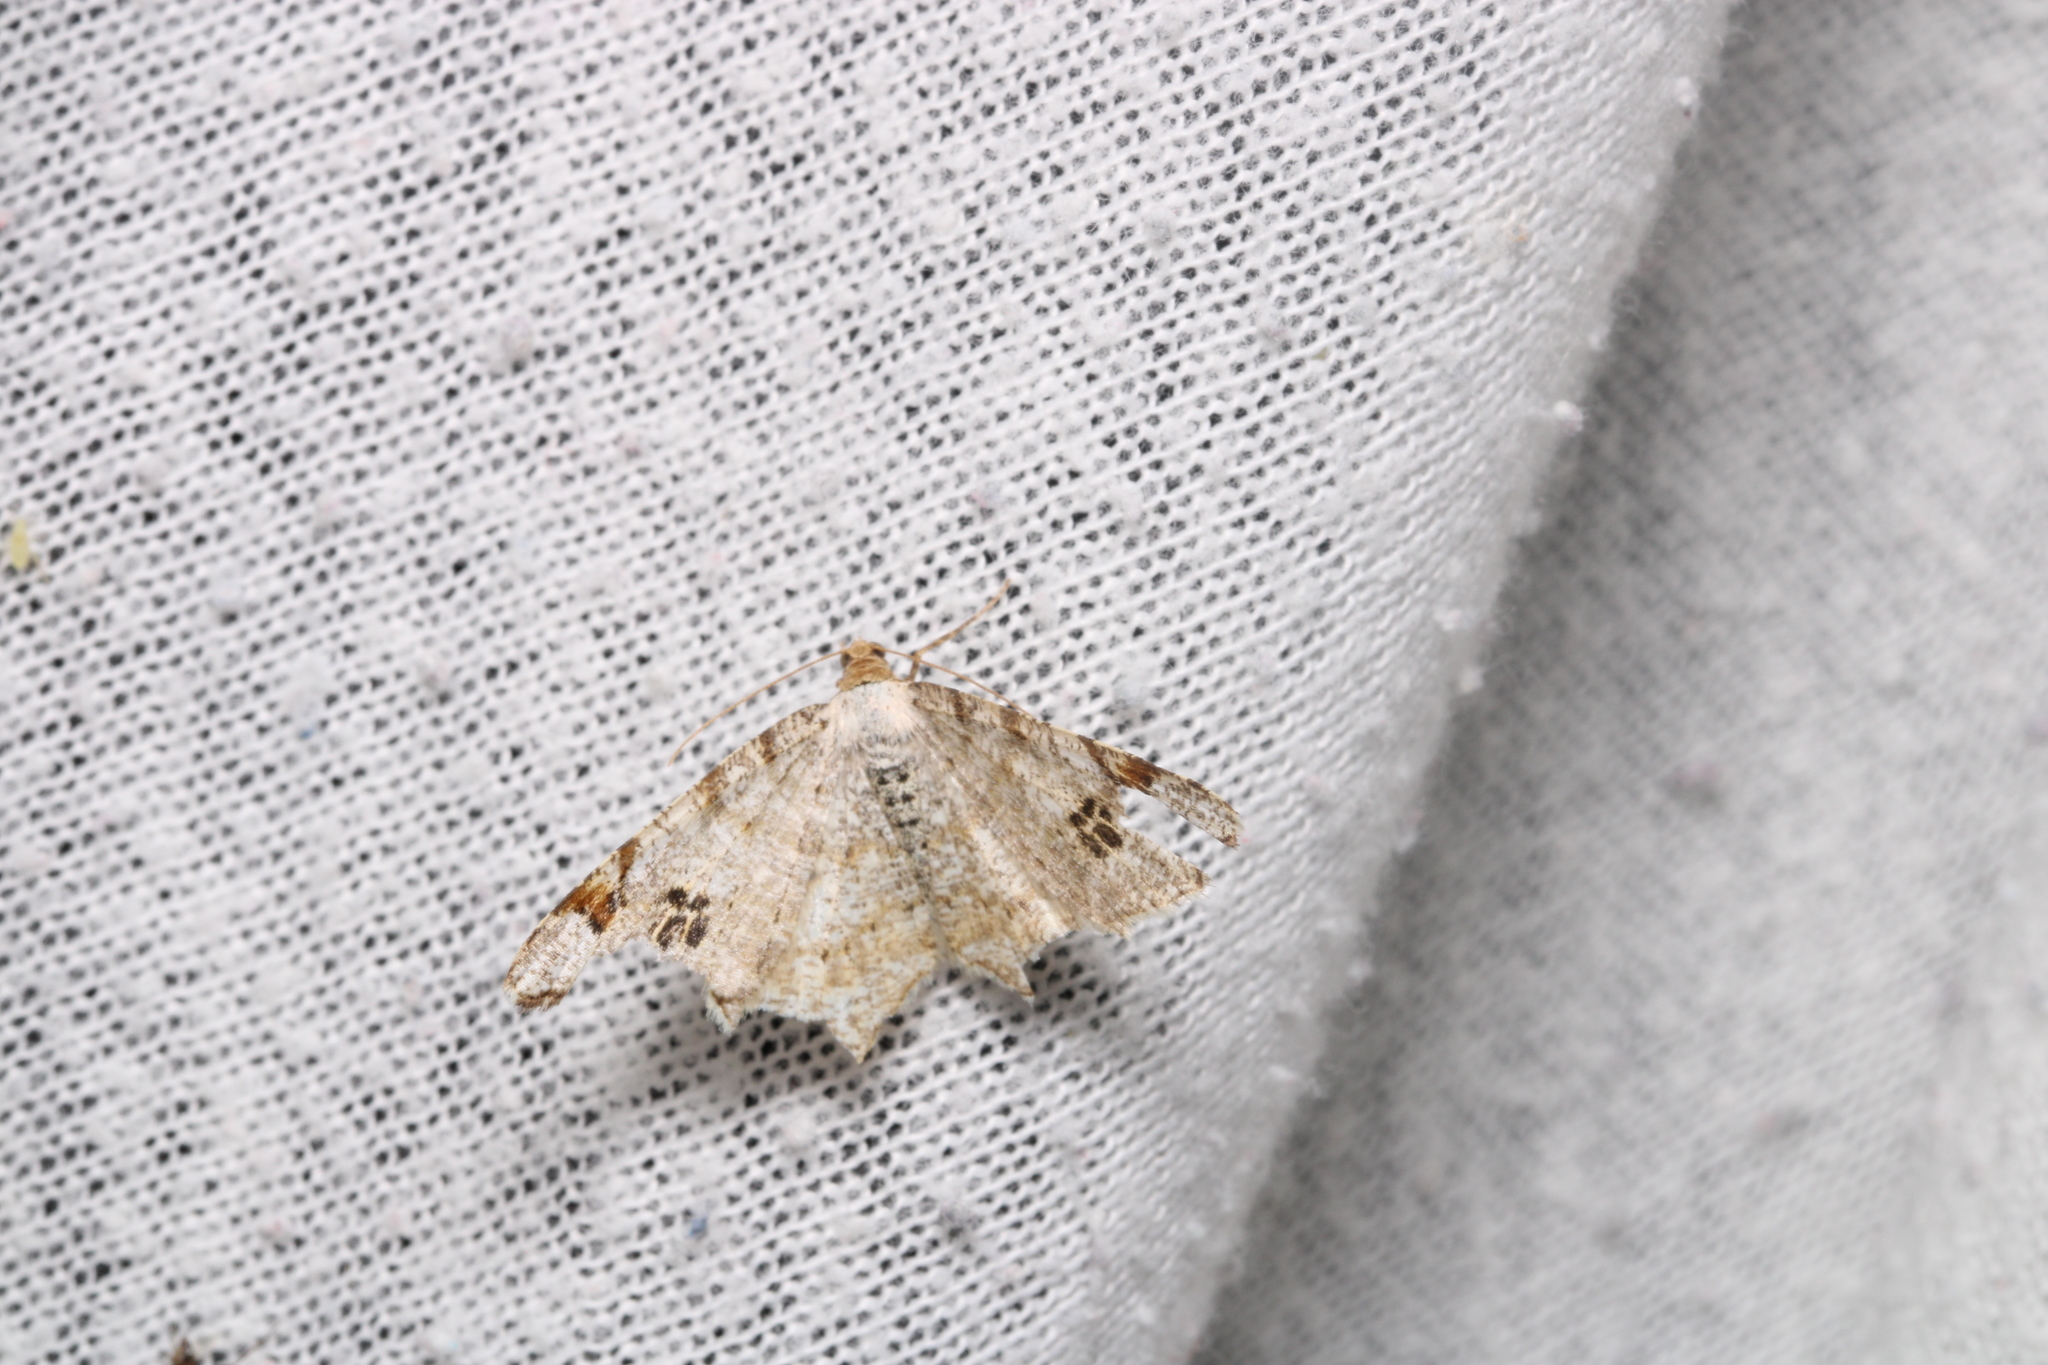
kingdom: Animalia
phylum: Arthropoda
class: Insecta
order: Lepidoptera
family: Geometridae
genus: Macaria
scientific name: Macaria notata
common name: Peacock moth
